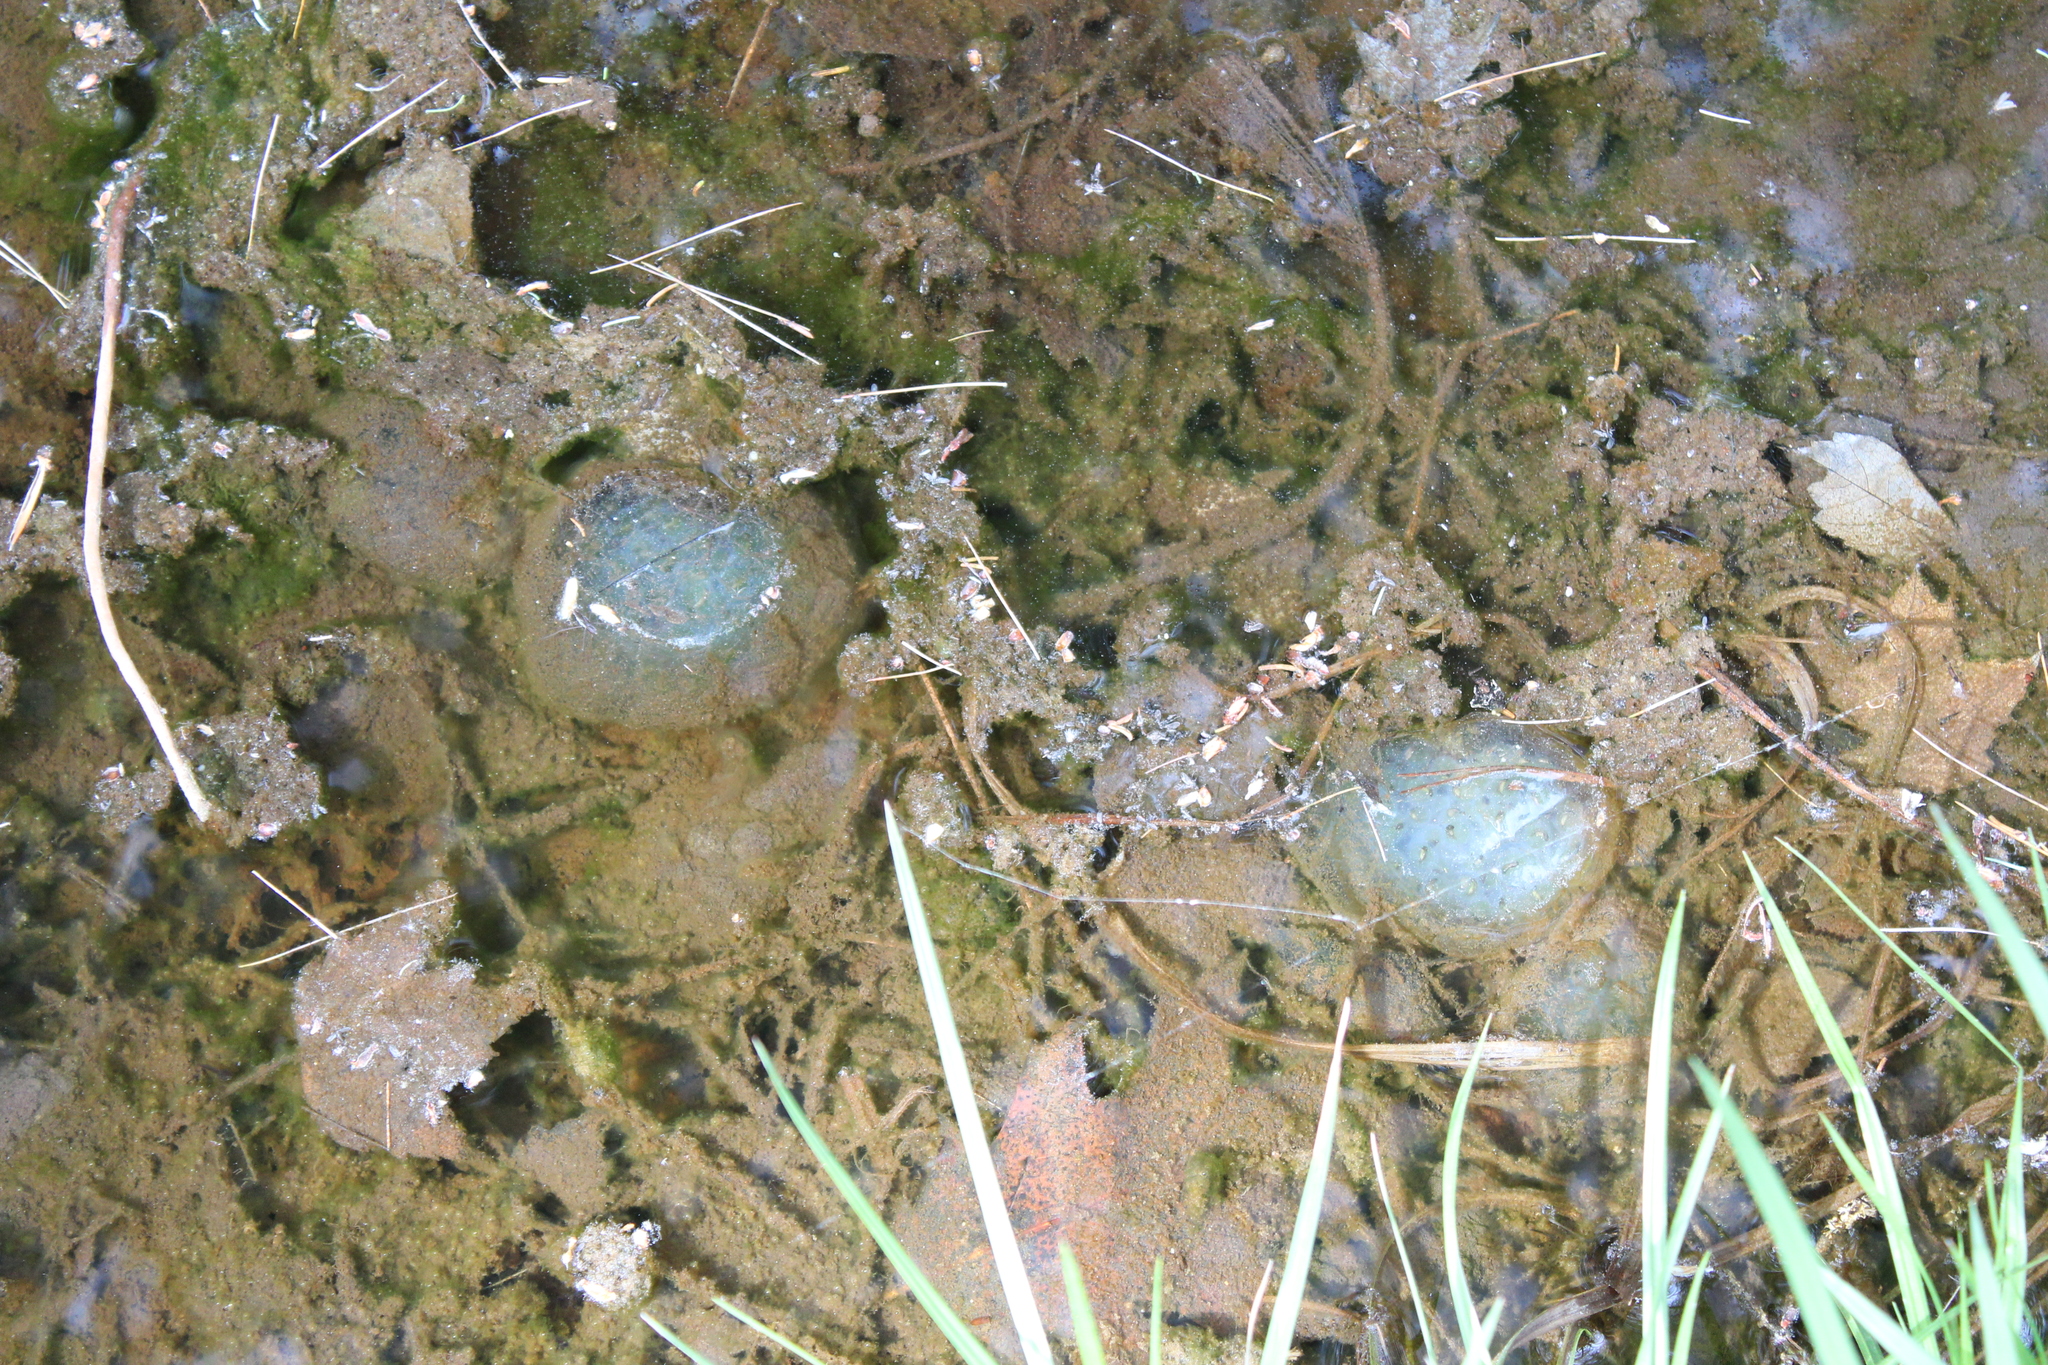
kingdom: Animalia
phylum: Chordata
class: Amphibia
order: Caudata
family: Ambystomatidae
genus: Ambystoma
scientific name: Ambystoma maculatum
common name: Spotted salamander
